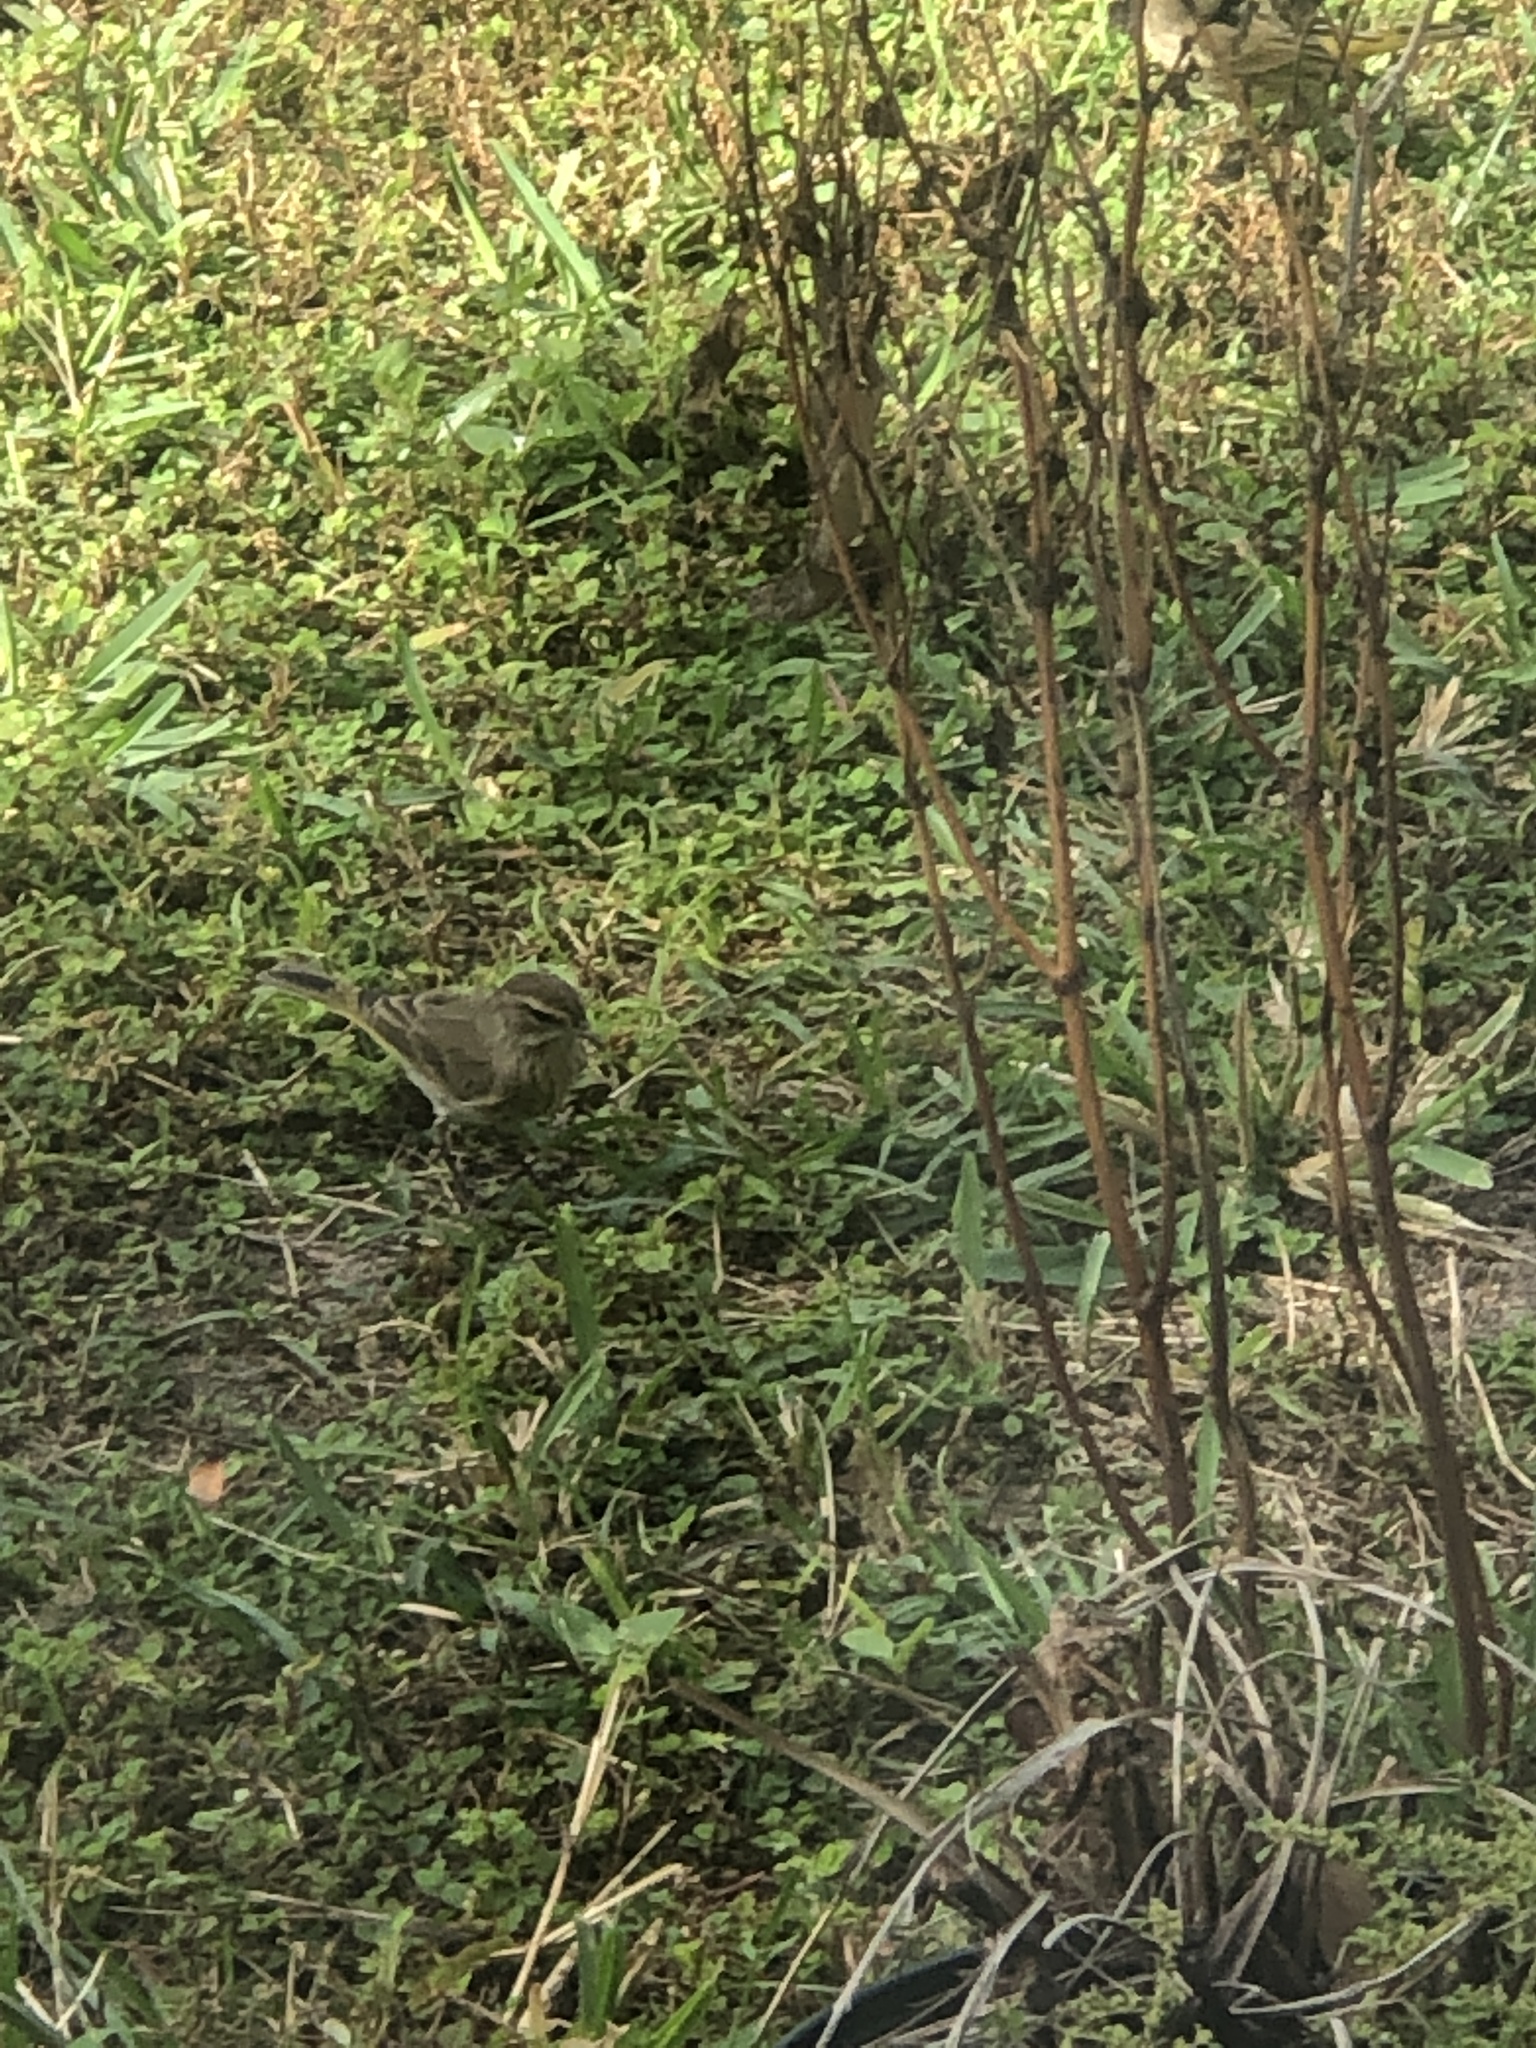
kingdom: Animalia
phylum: Chordata
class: Aves
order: Passeriformes
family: Parulidae
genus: Setophaga
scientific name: Setophaga palmarum
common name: Palm warbler
